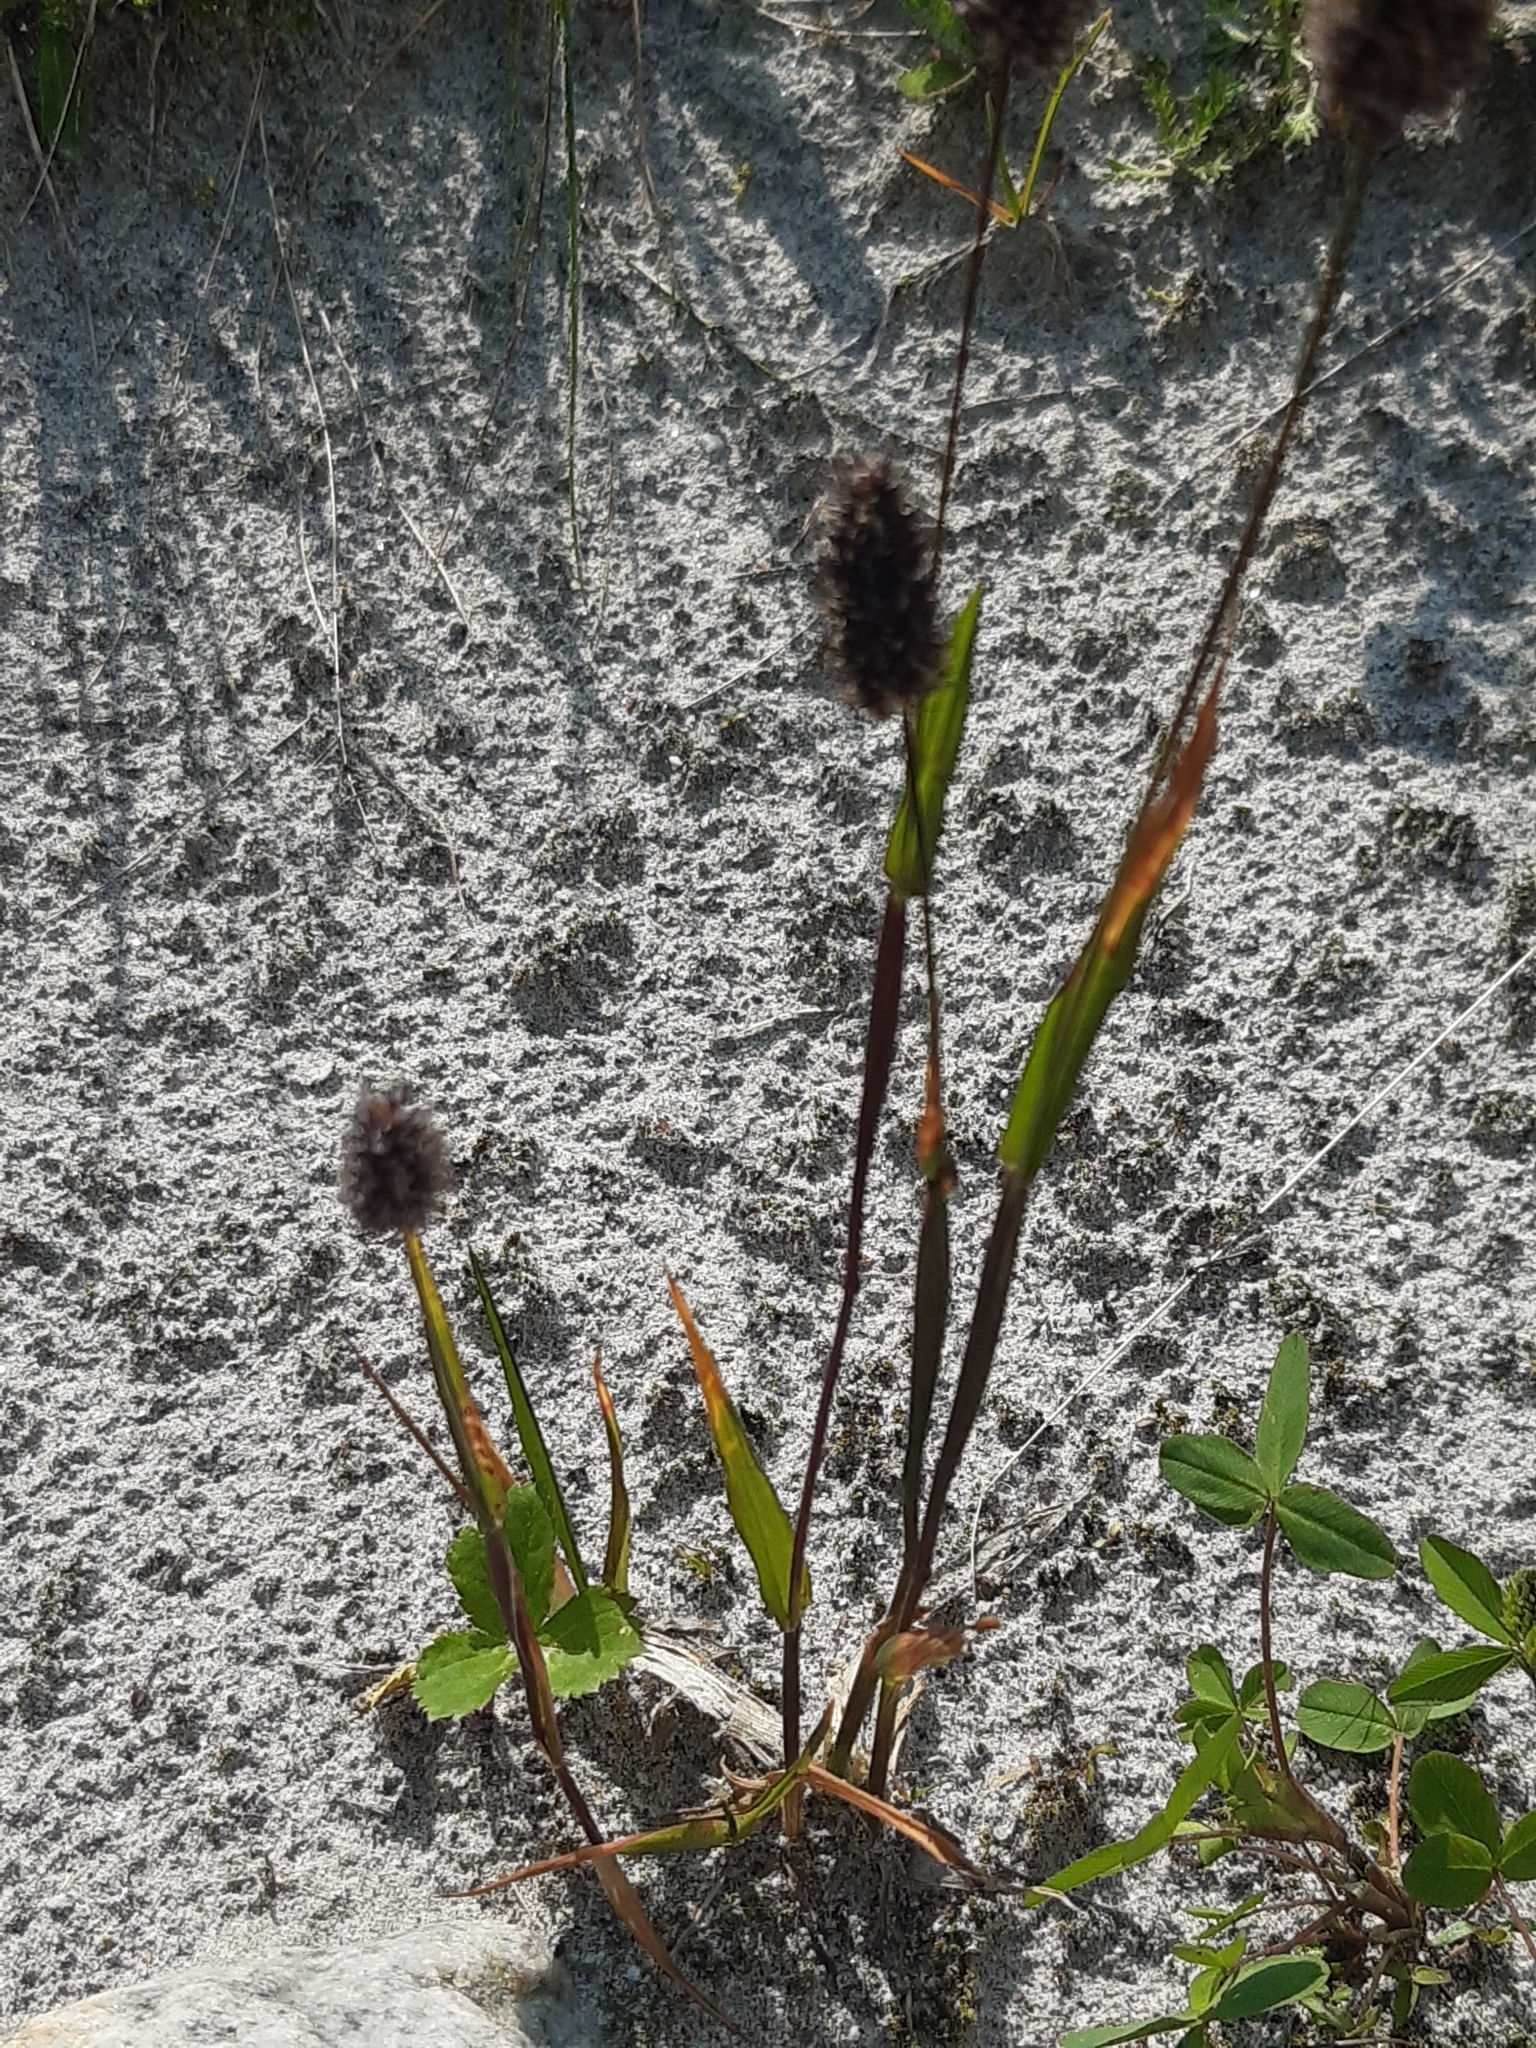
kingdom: Plantae
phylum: Tracheophyta
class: Liliopsida
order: Poales
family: Poaceae
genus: Phleum
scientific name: Phleum alpinum
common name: Alpine cat's-tail
